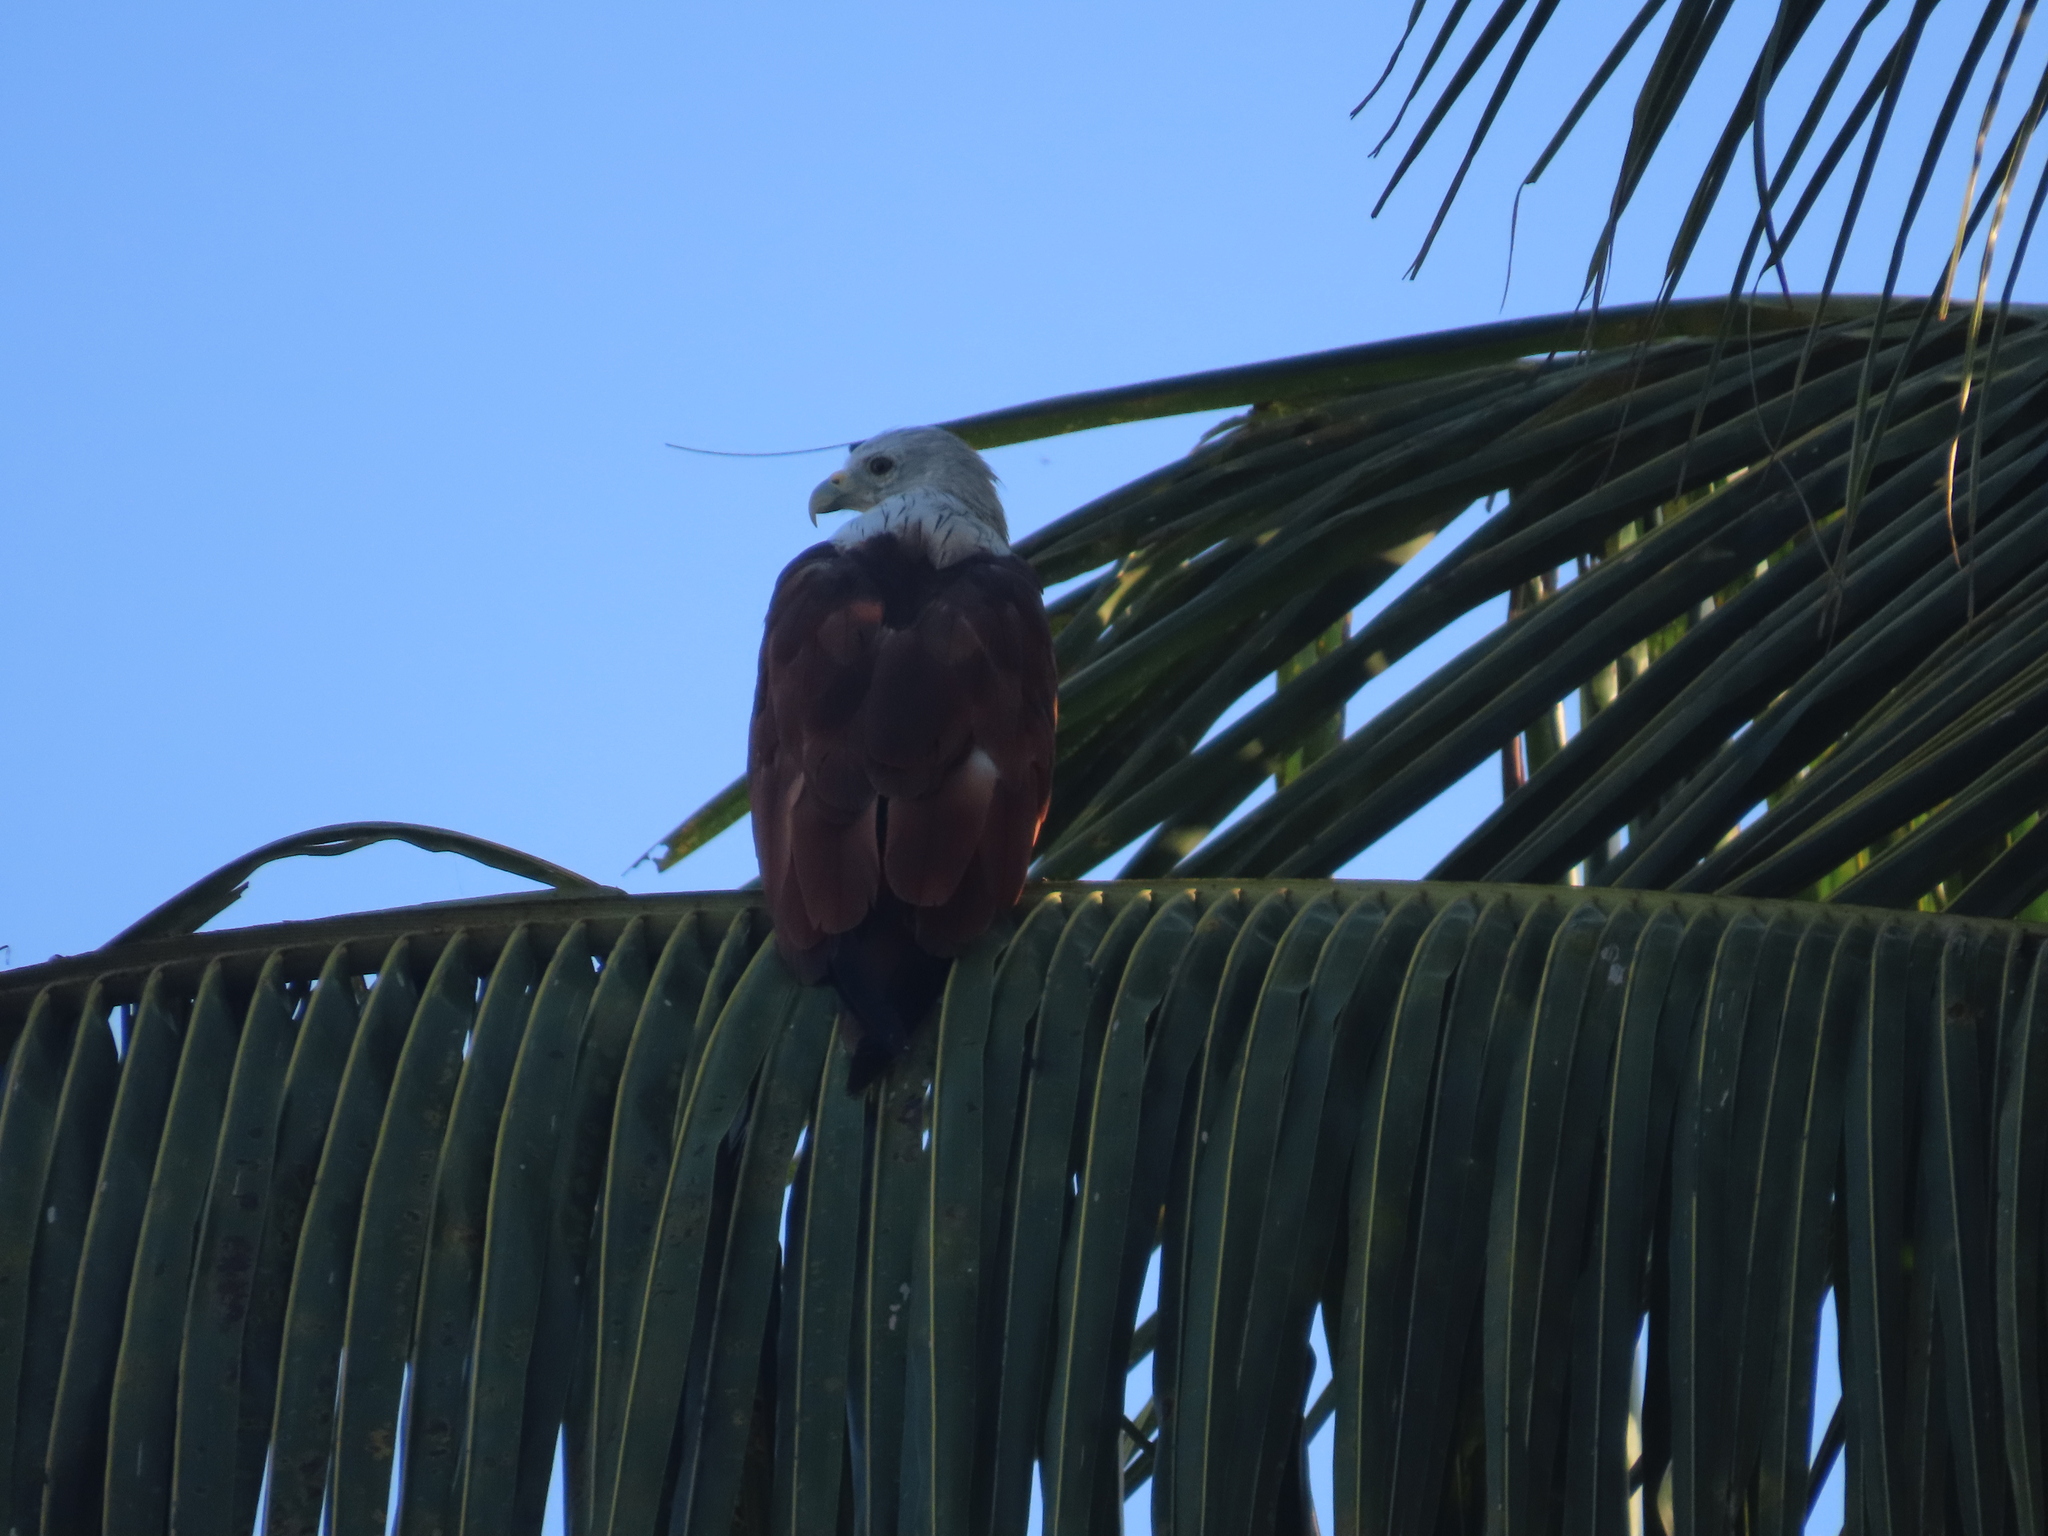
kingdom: Animalia
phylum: Chordata
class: Aves
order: Accipitriformes
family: Accipitridae
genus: Haliastur
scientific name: Haliastur indus
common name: Brahminy kite
